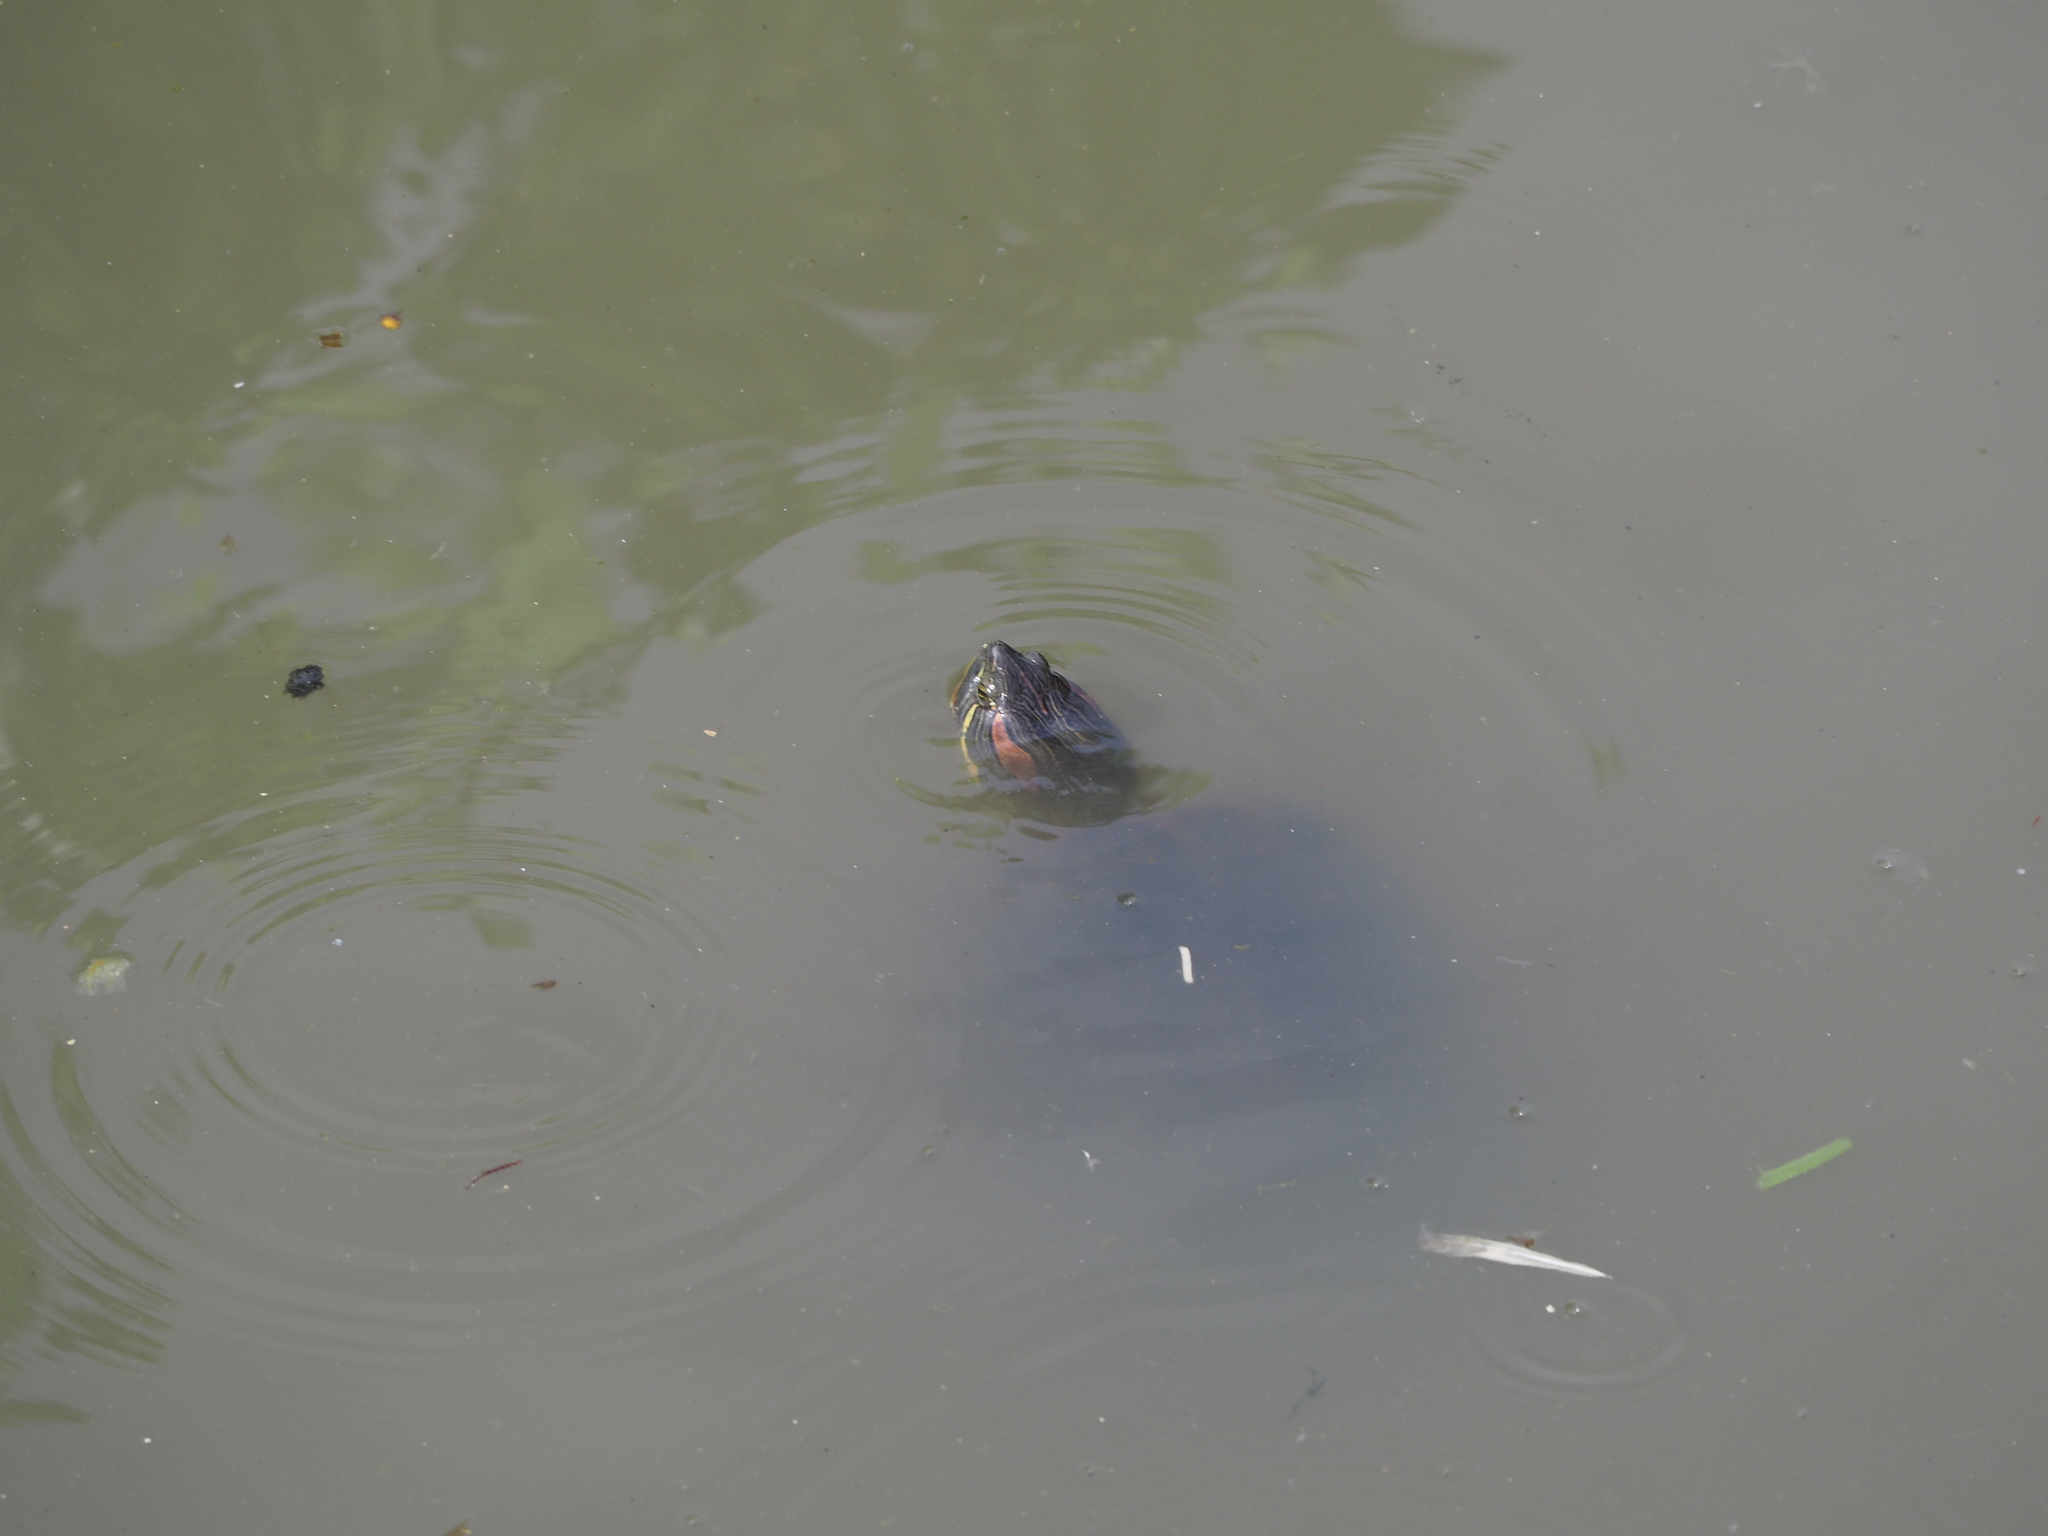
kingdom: Animalia
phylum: Chordata
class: Testudines
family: Emydidae
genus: Trachemys
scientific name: Trachemys scripta
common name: Slider
